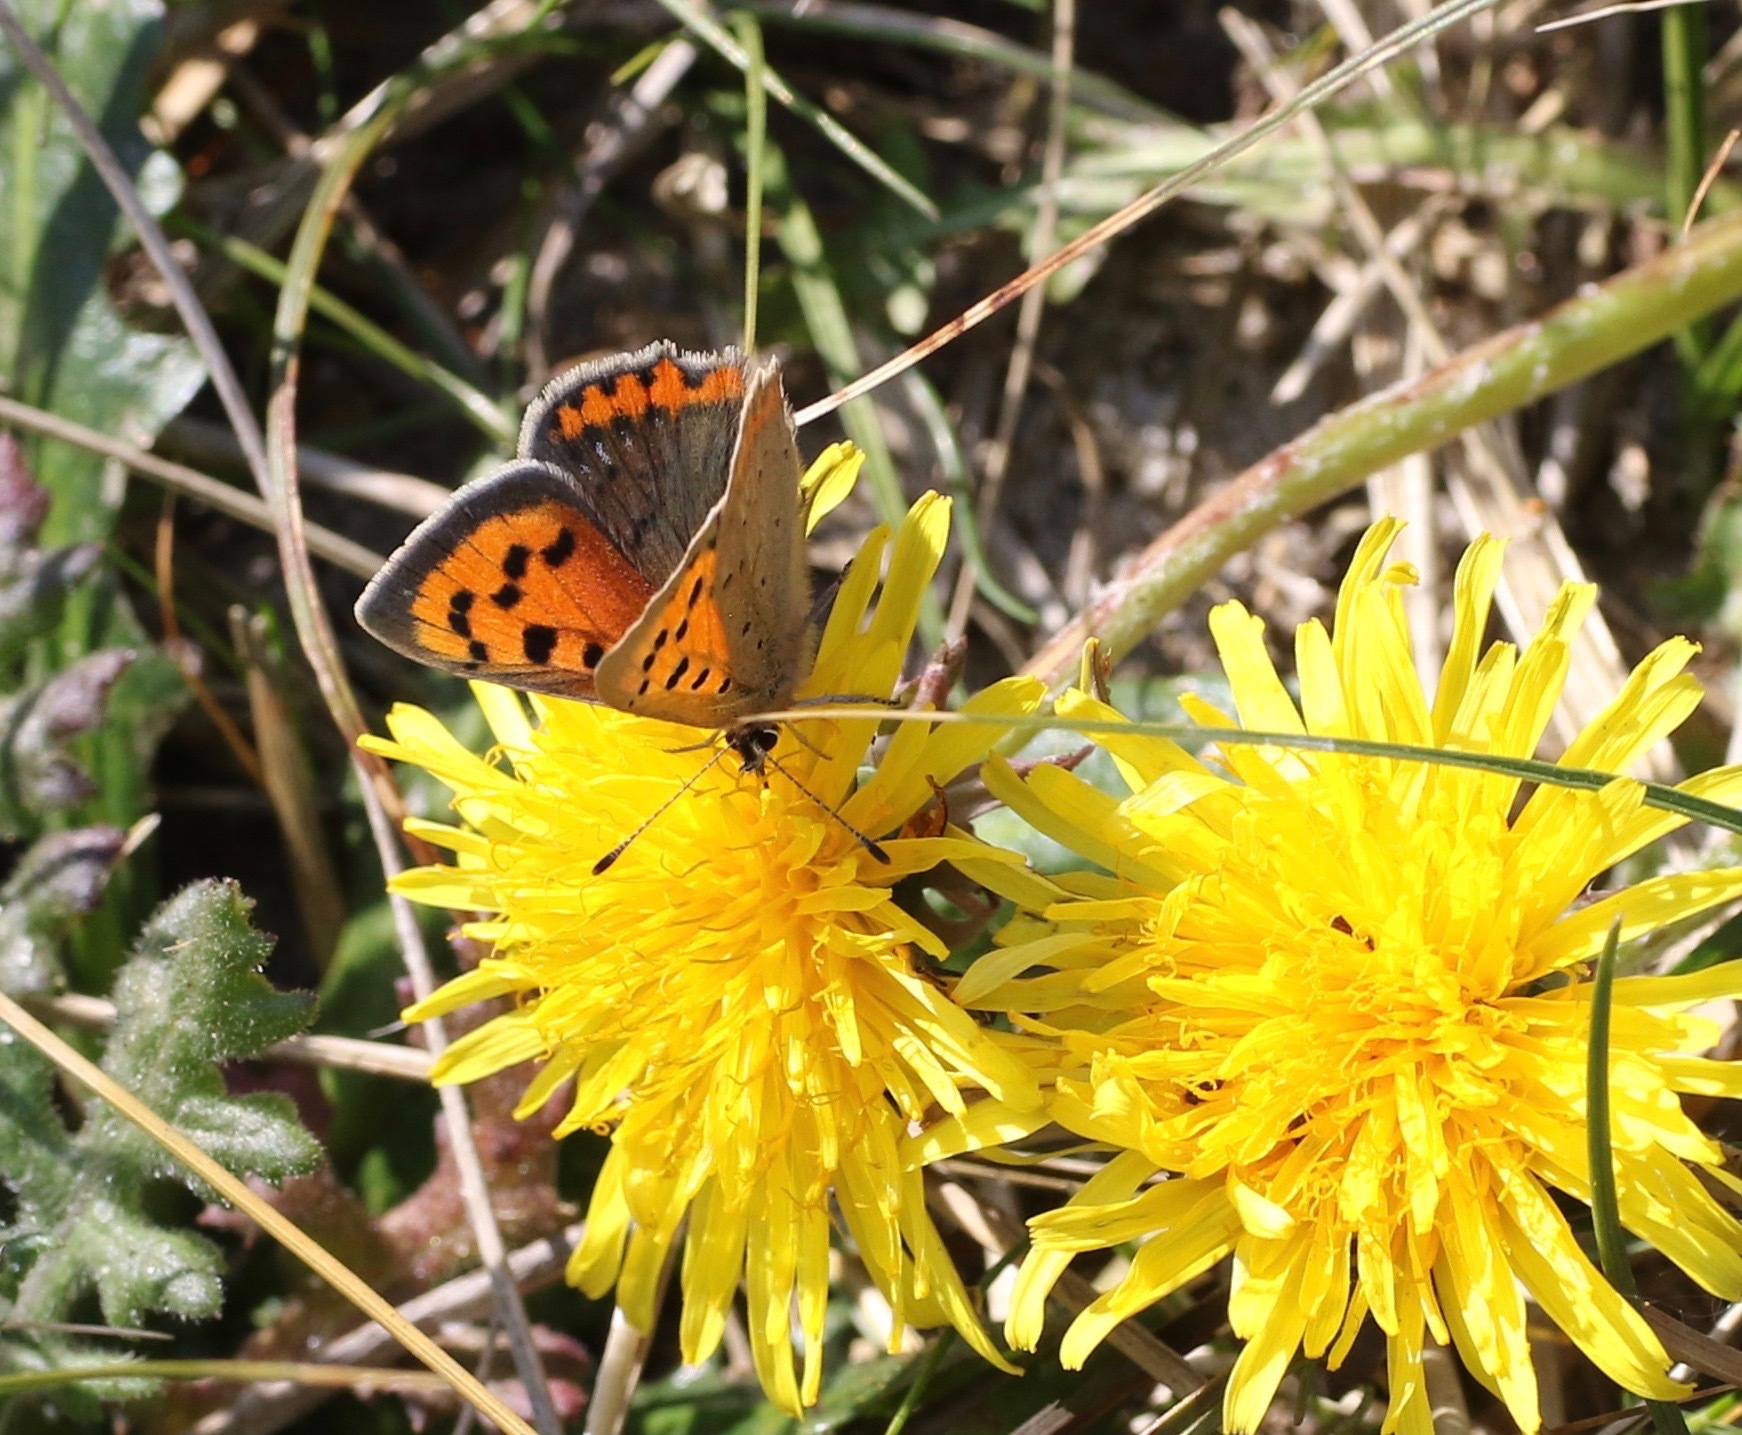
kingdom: Animalia
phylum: Arthropoda
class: Insecta
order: Lepidoptera
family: Lycaenidae
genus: Lycaena
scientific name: Lycaena phlaeas
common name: Small copper
